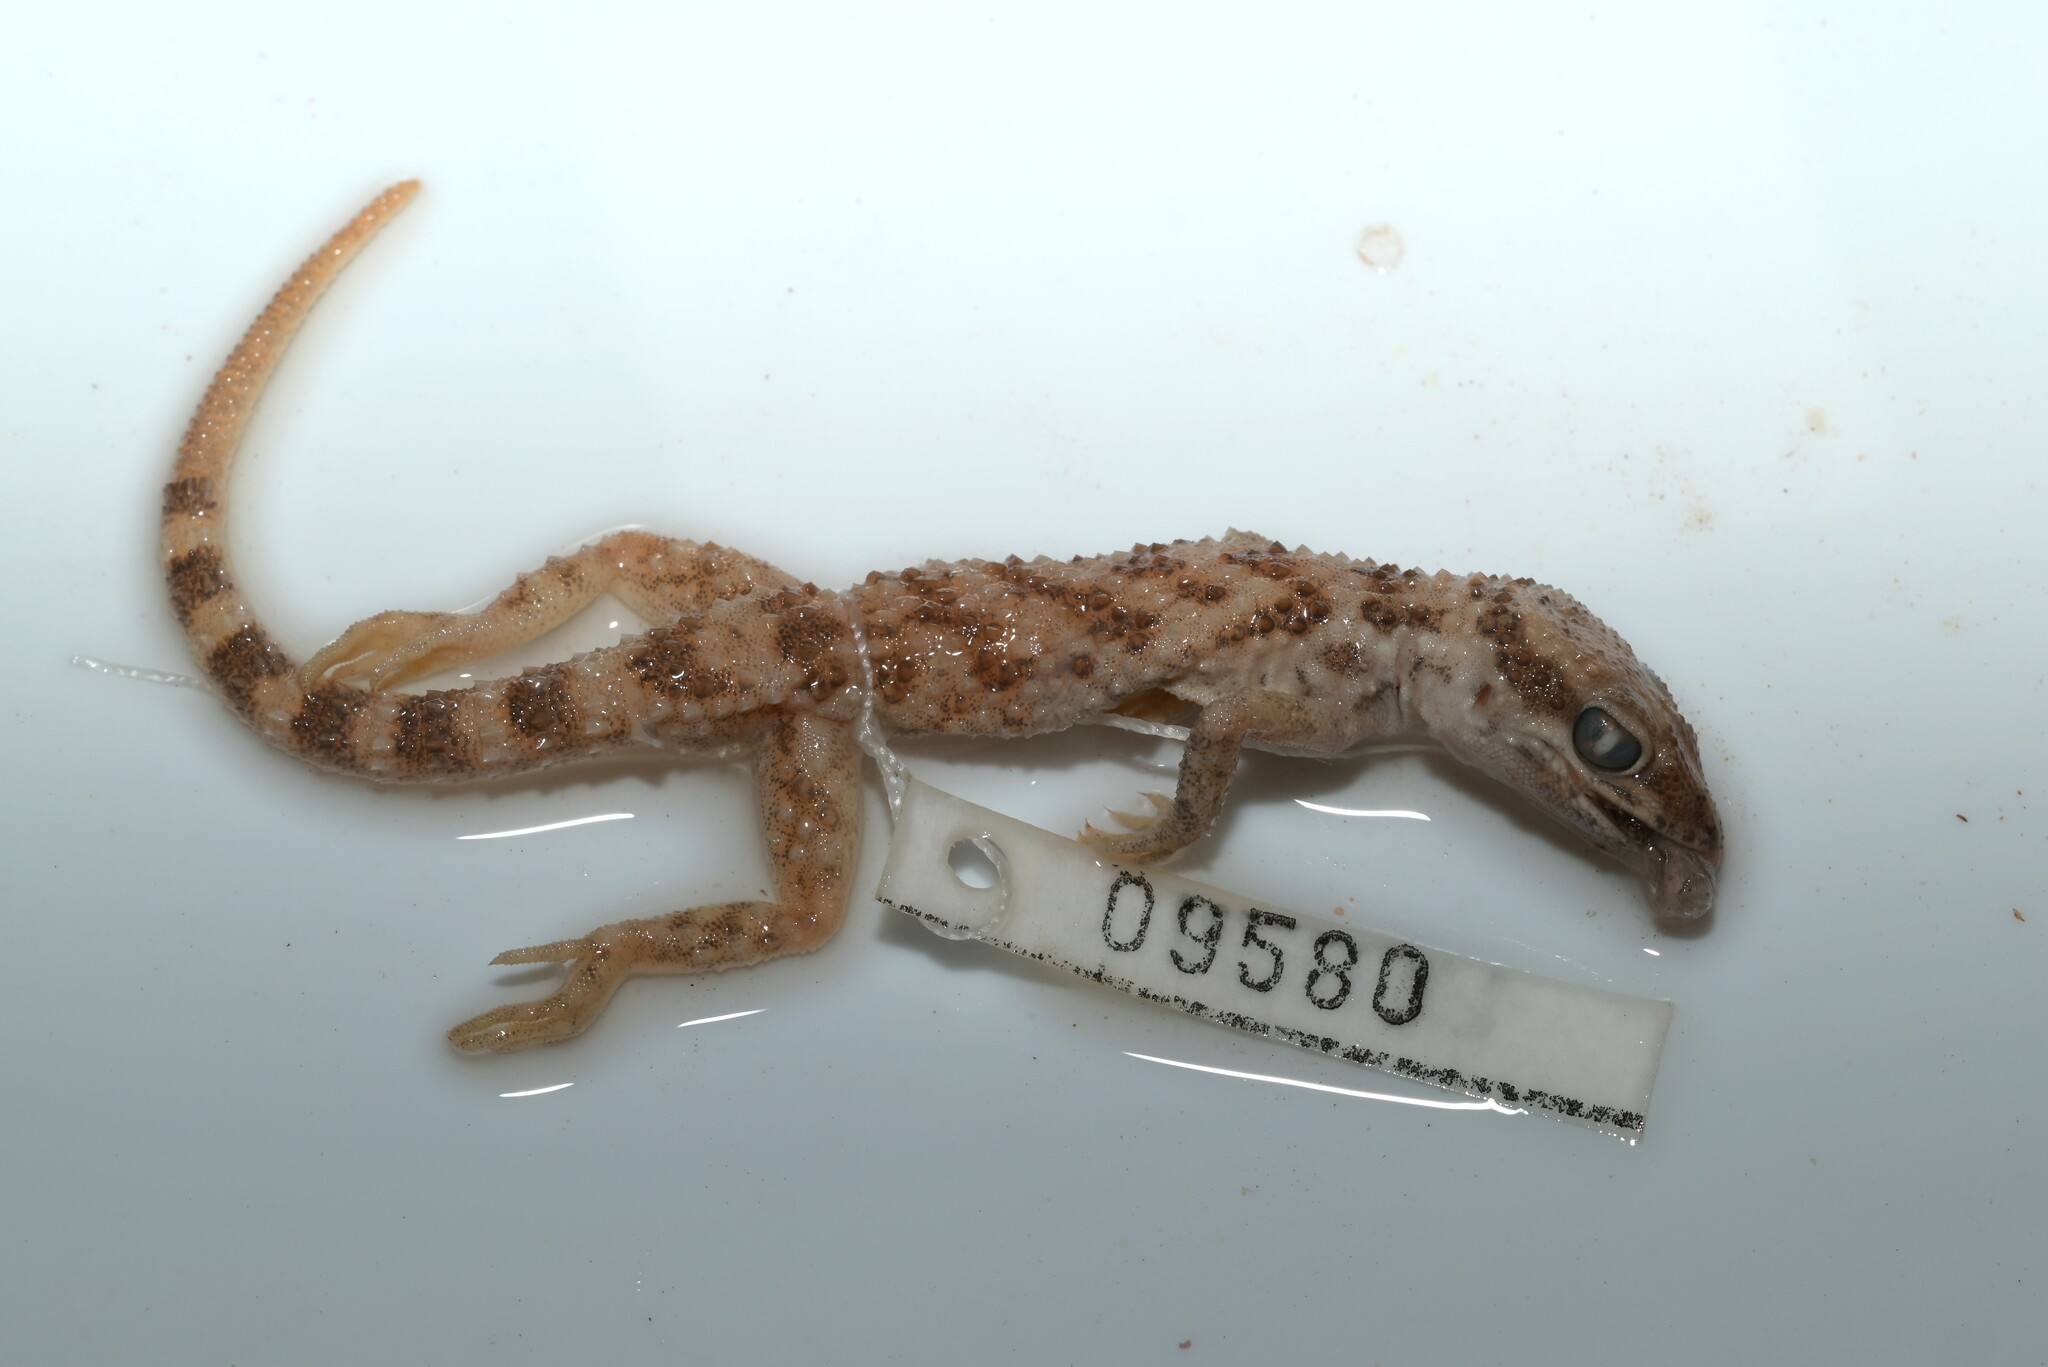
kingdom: Animalia
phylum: Chordata
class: Squamata
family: Gekkonidae
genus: Bunopus
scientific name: Bunopus tuberculatus
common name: Southern tuberculated gecko
